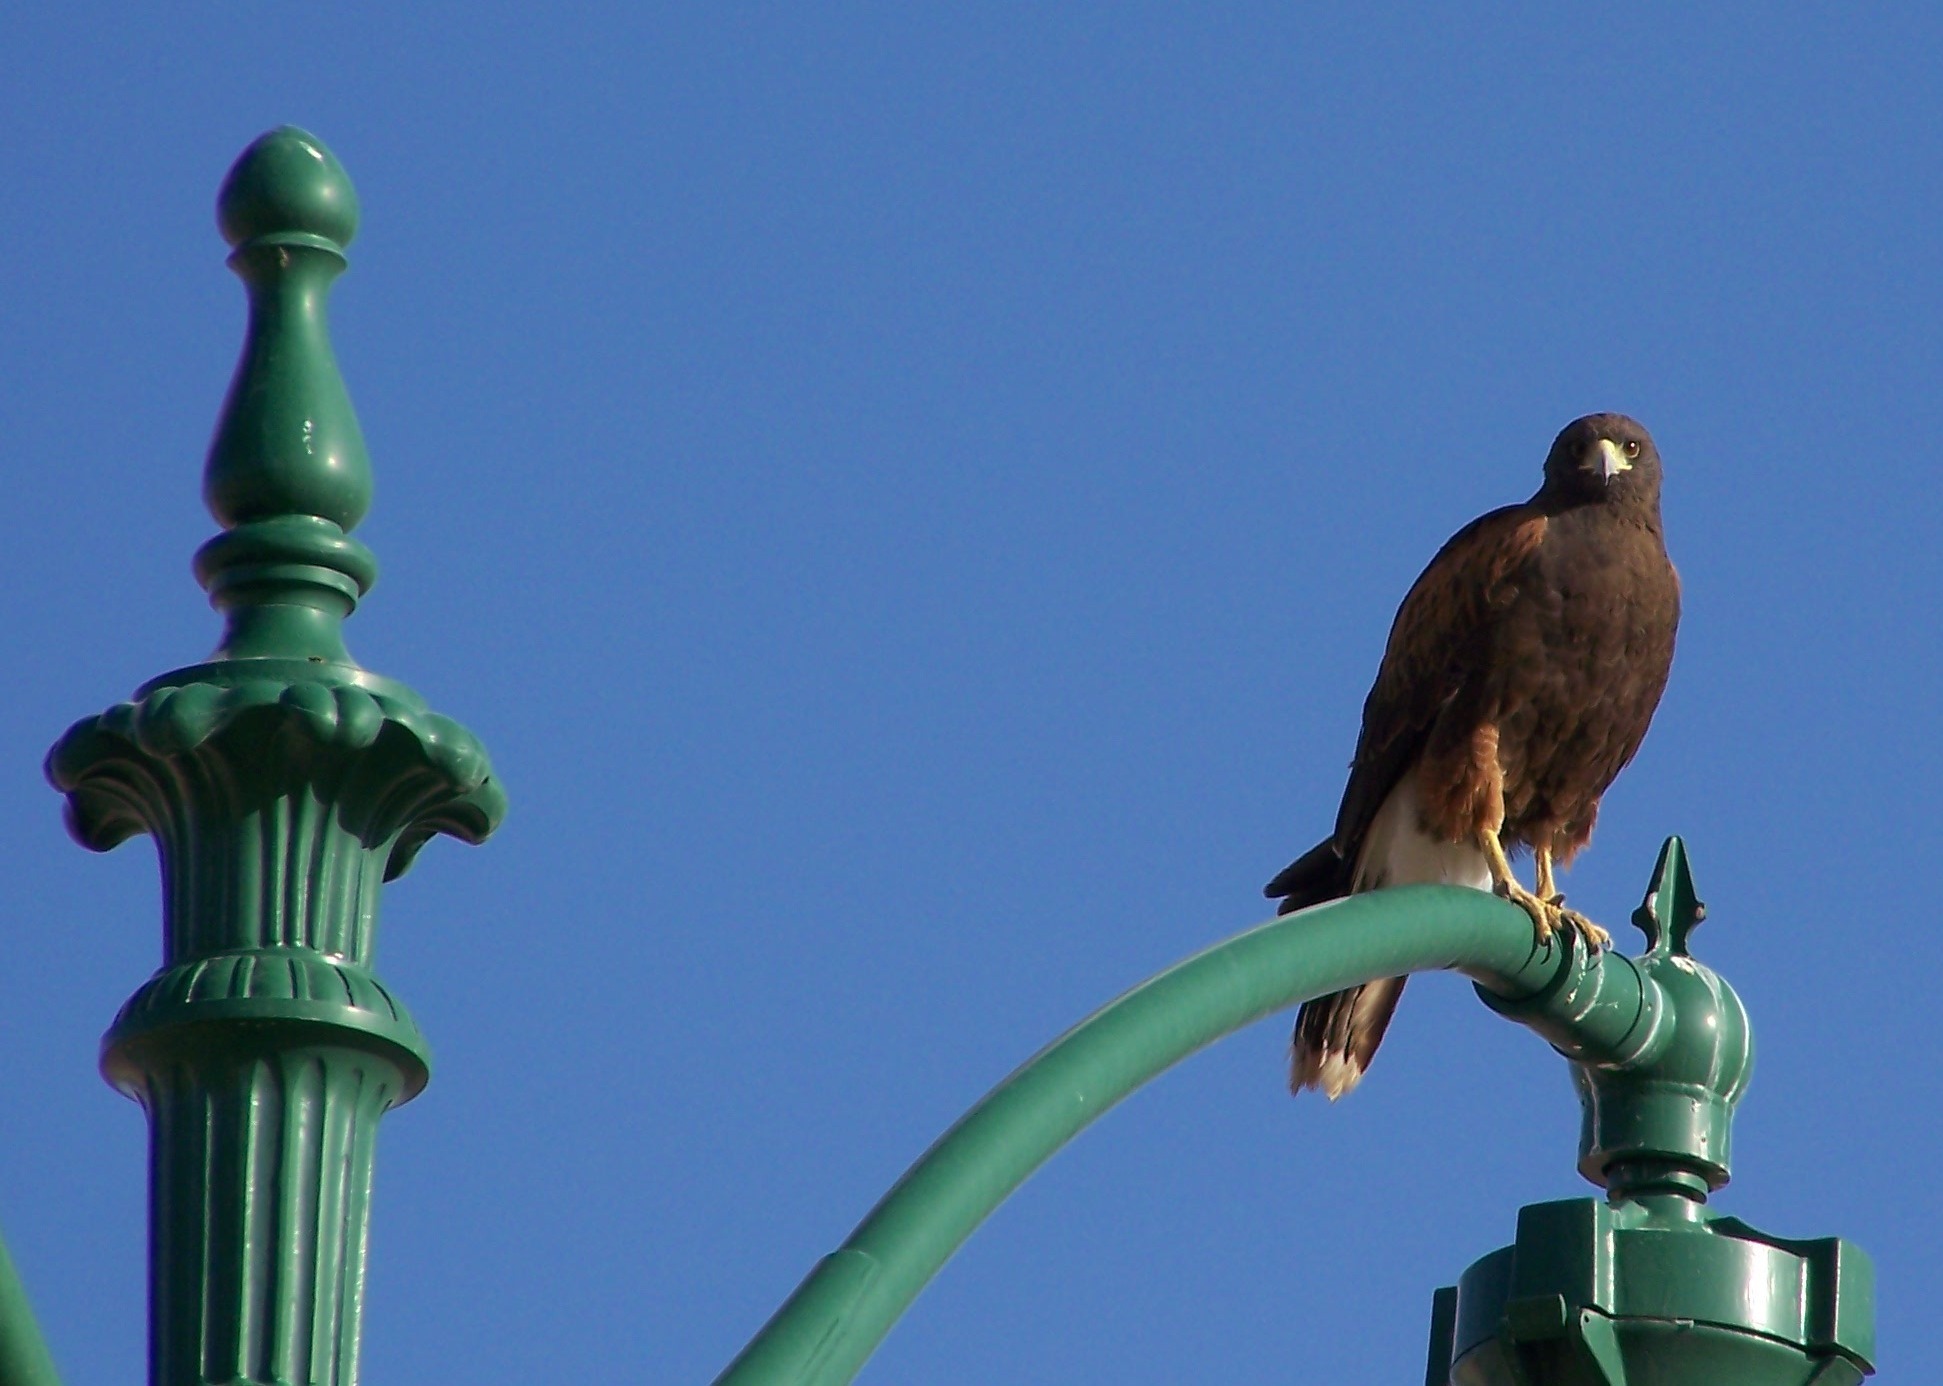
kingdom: Animalia
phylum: Chordata
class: Aves
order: Accipitriformes
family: Accipitridae
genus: Parabuteo
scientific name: Parabuteo unicinctus
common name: Harris's hawk
